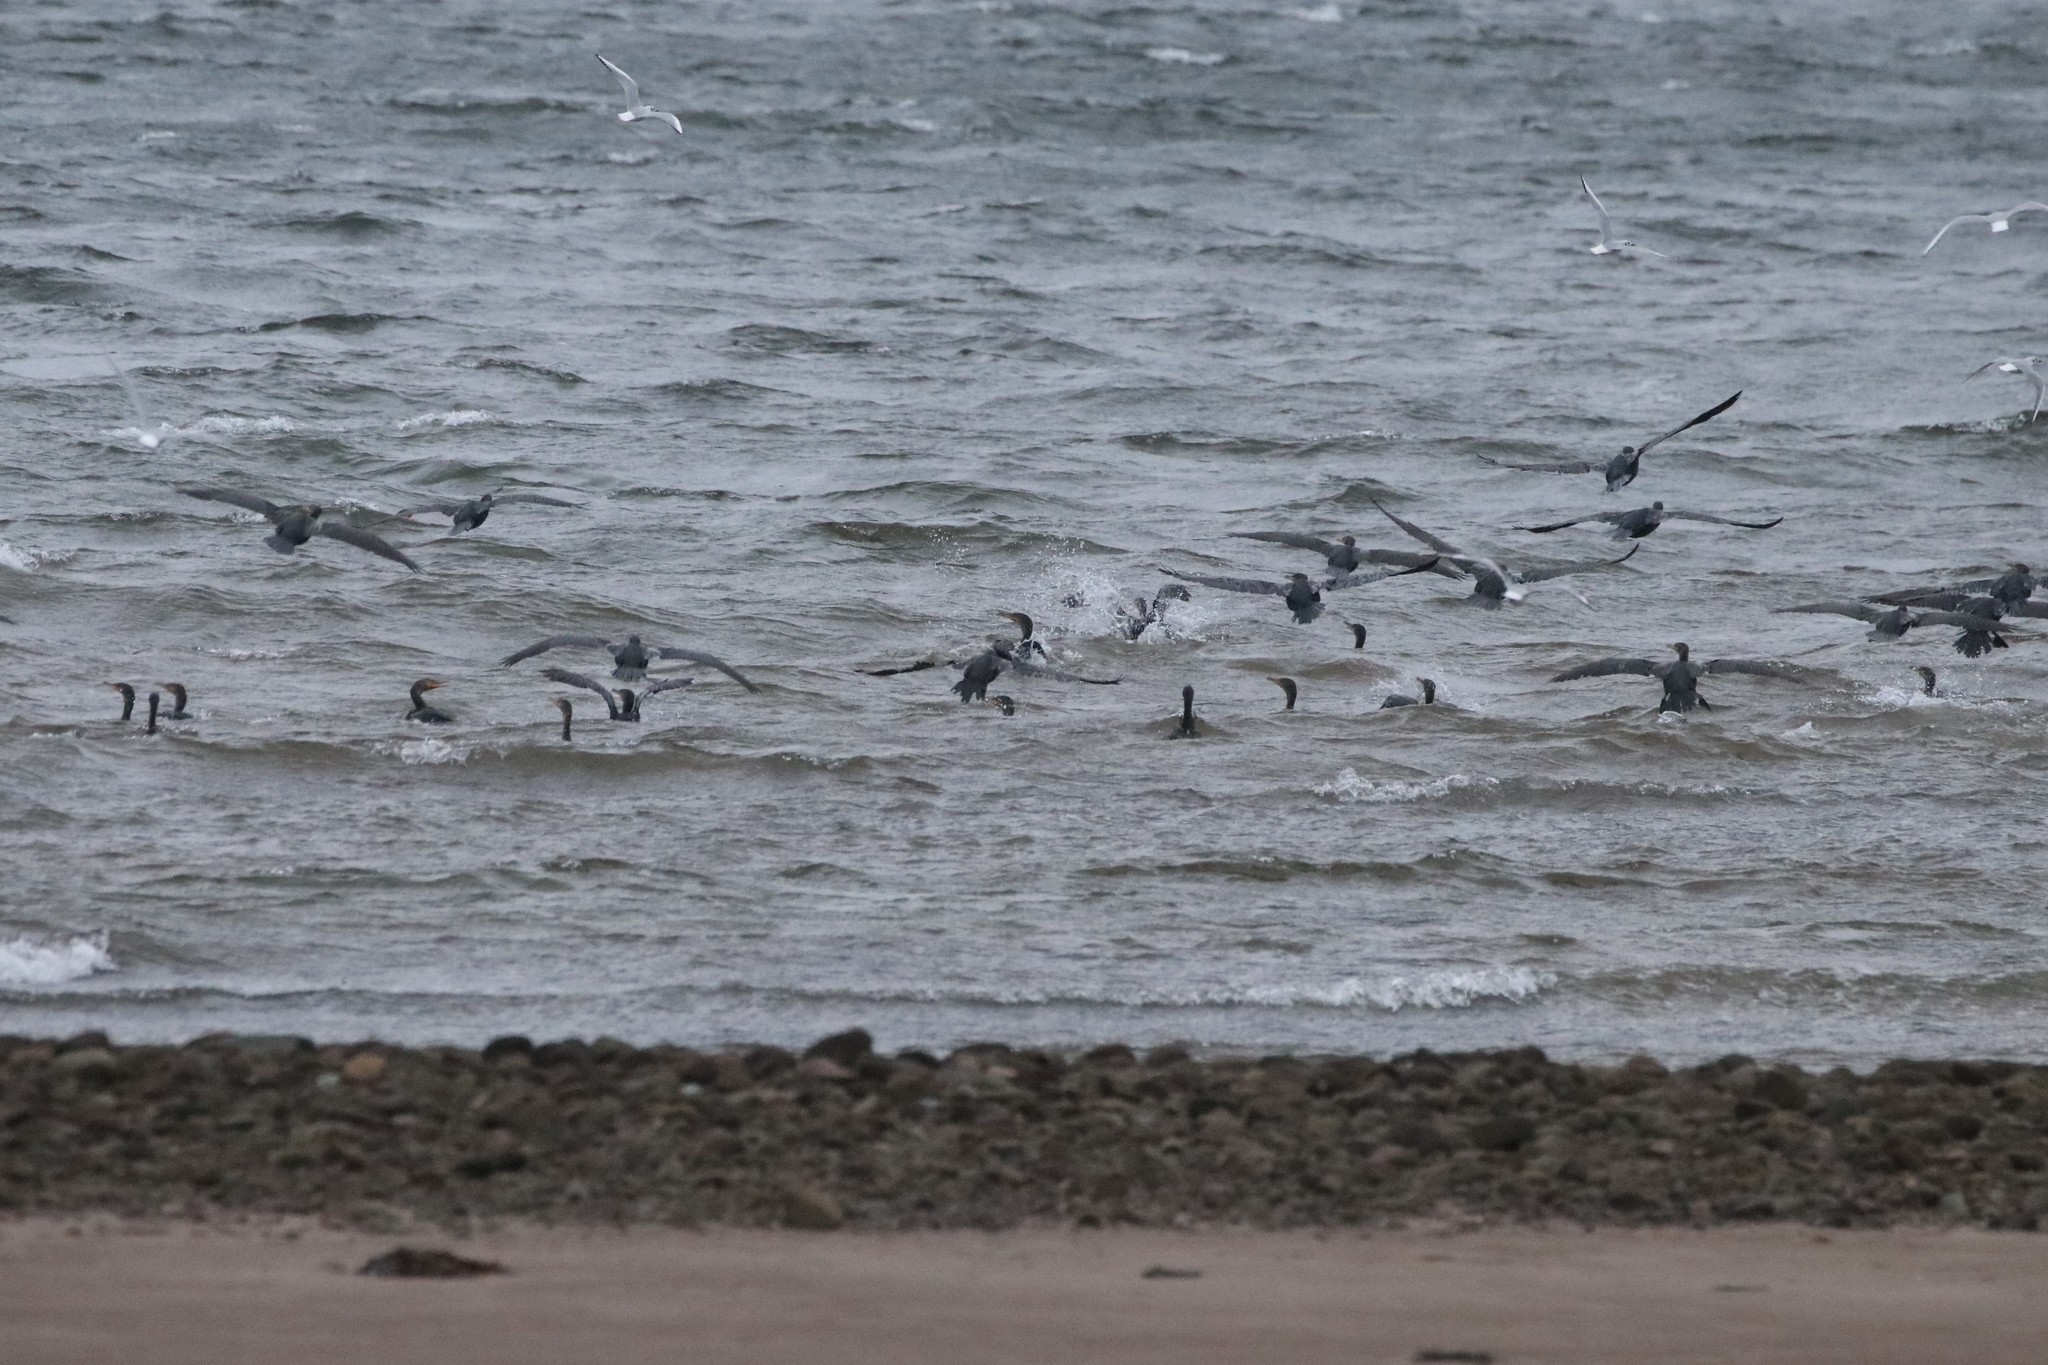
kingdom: Animalia
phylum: Chordata
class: Aves
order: Suliformes
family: Phalacrocoracidae
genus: Phalacrocorax
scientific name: Phalacrocorax auritus
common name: Double-crested cormorant
